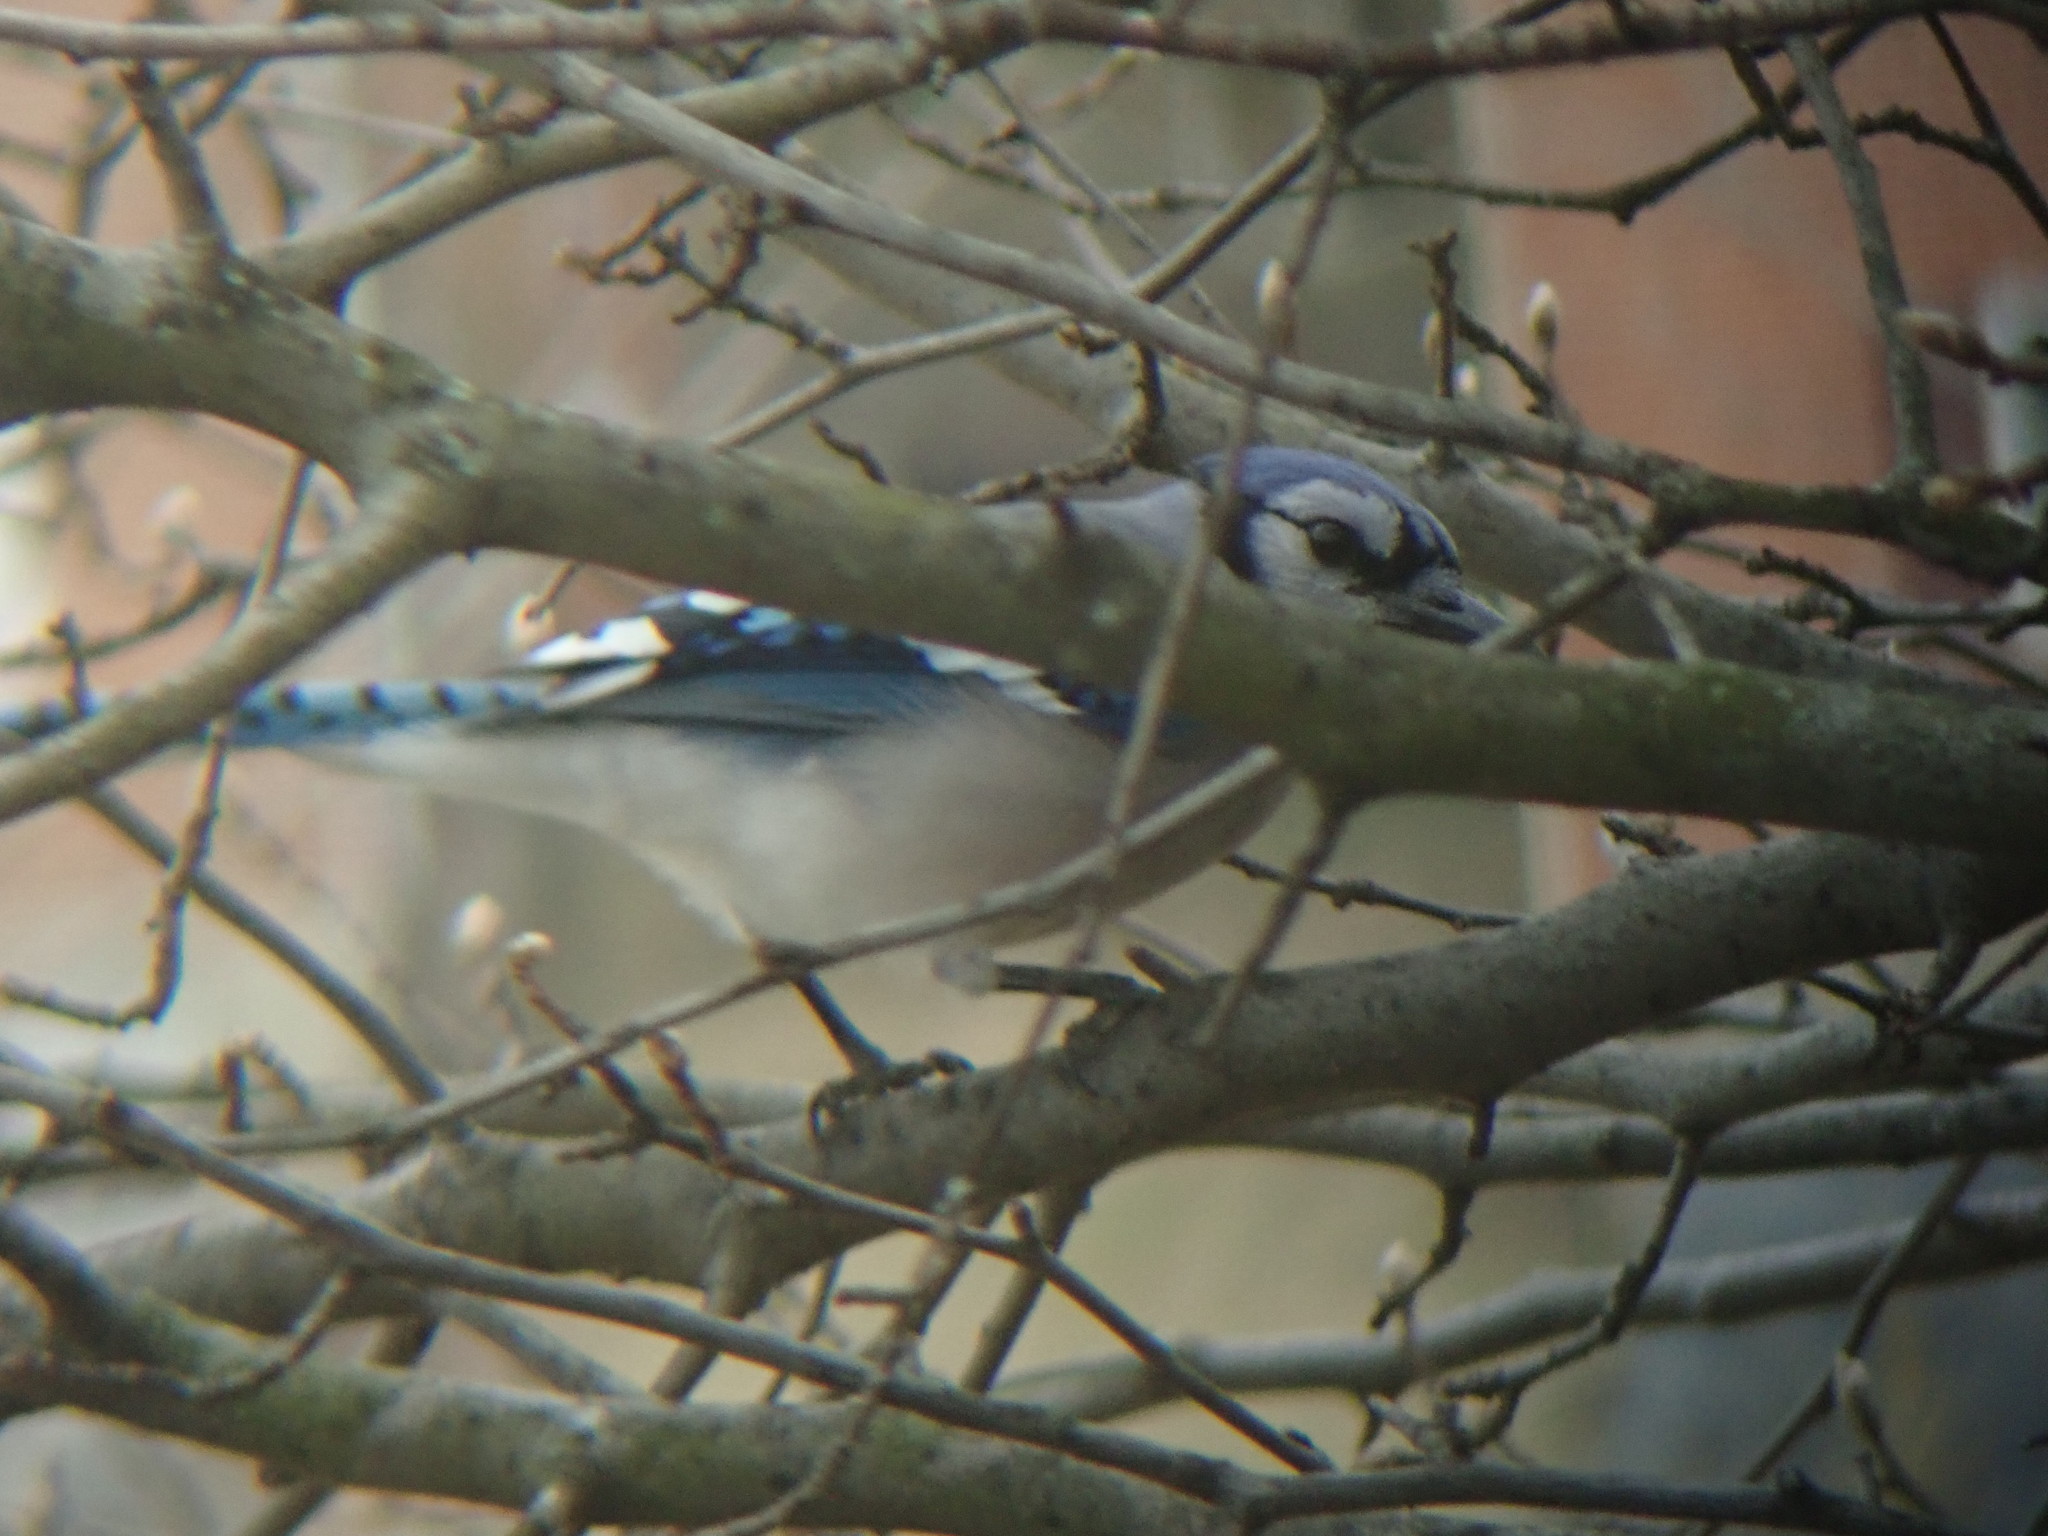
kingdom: Animalia
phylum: Chordata
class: Aves
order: Passeriformes
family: Corvidae
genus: Cyanocitta
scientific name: Cyanocitta cristata
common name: Blue jay
